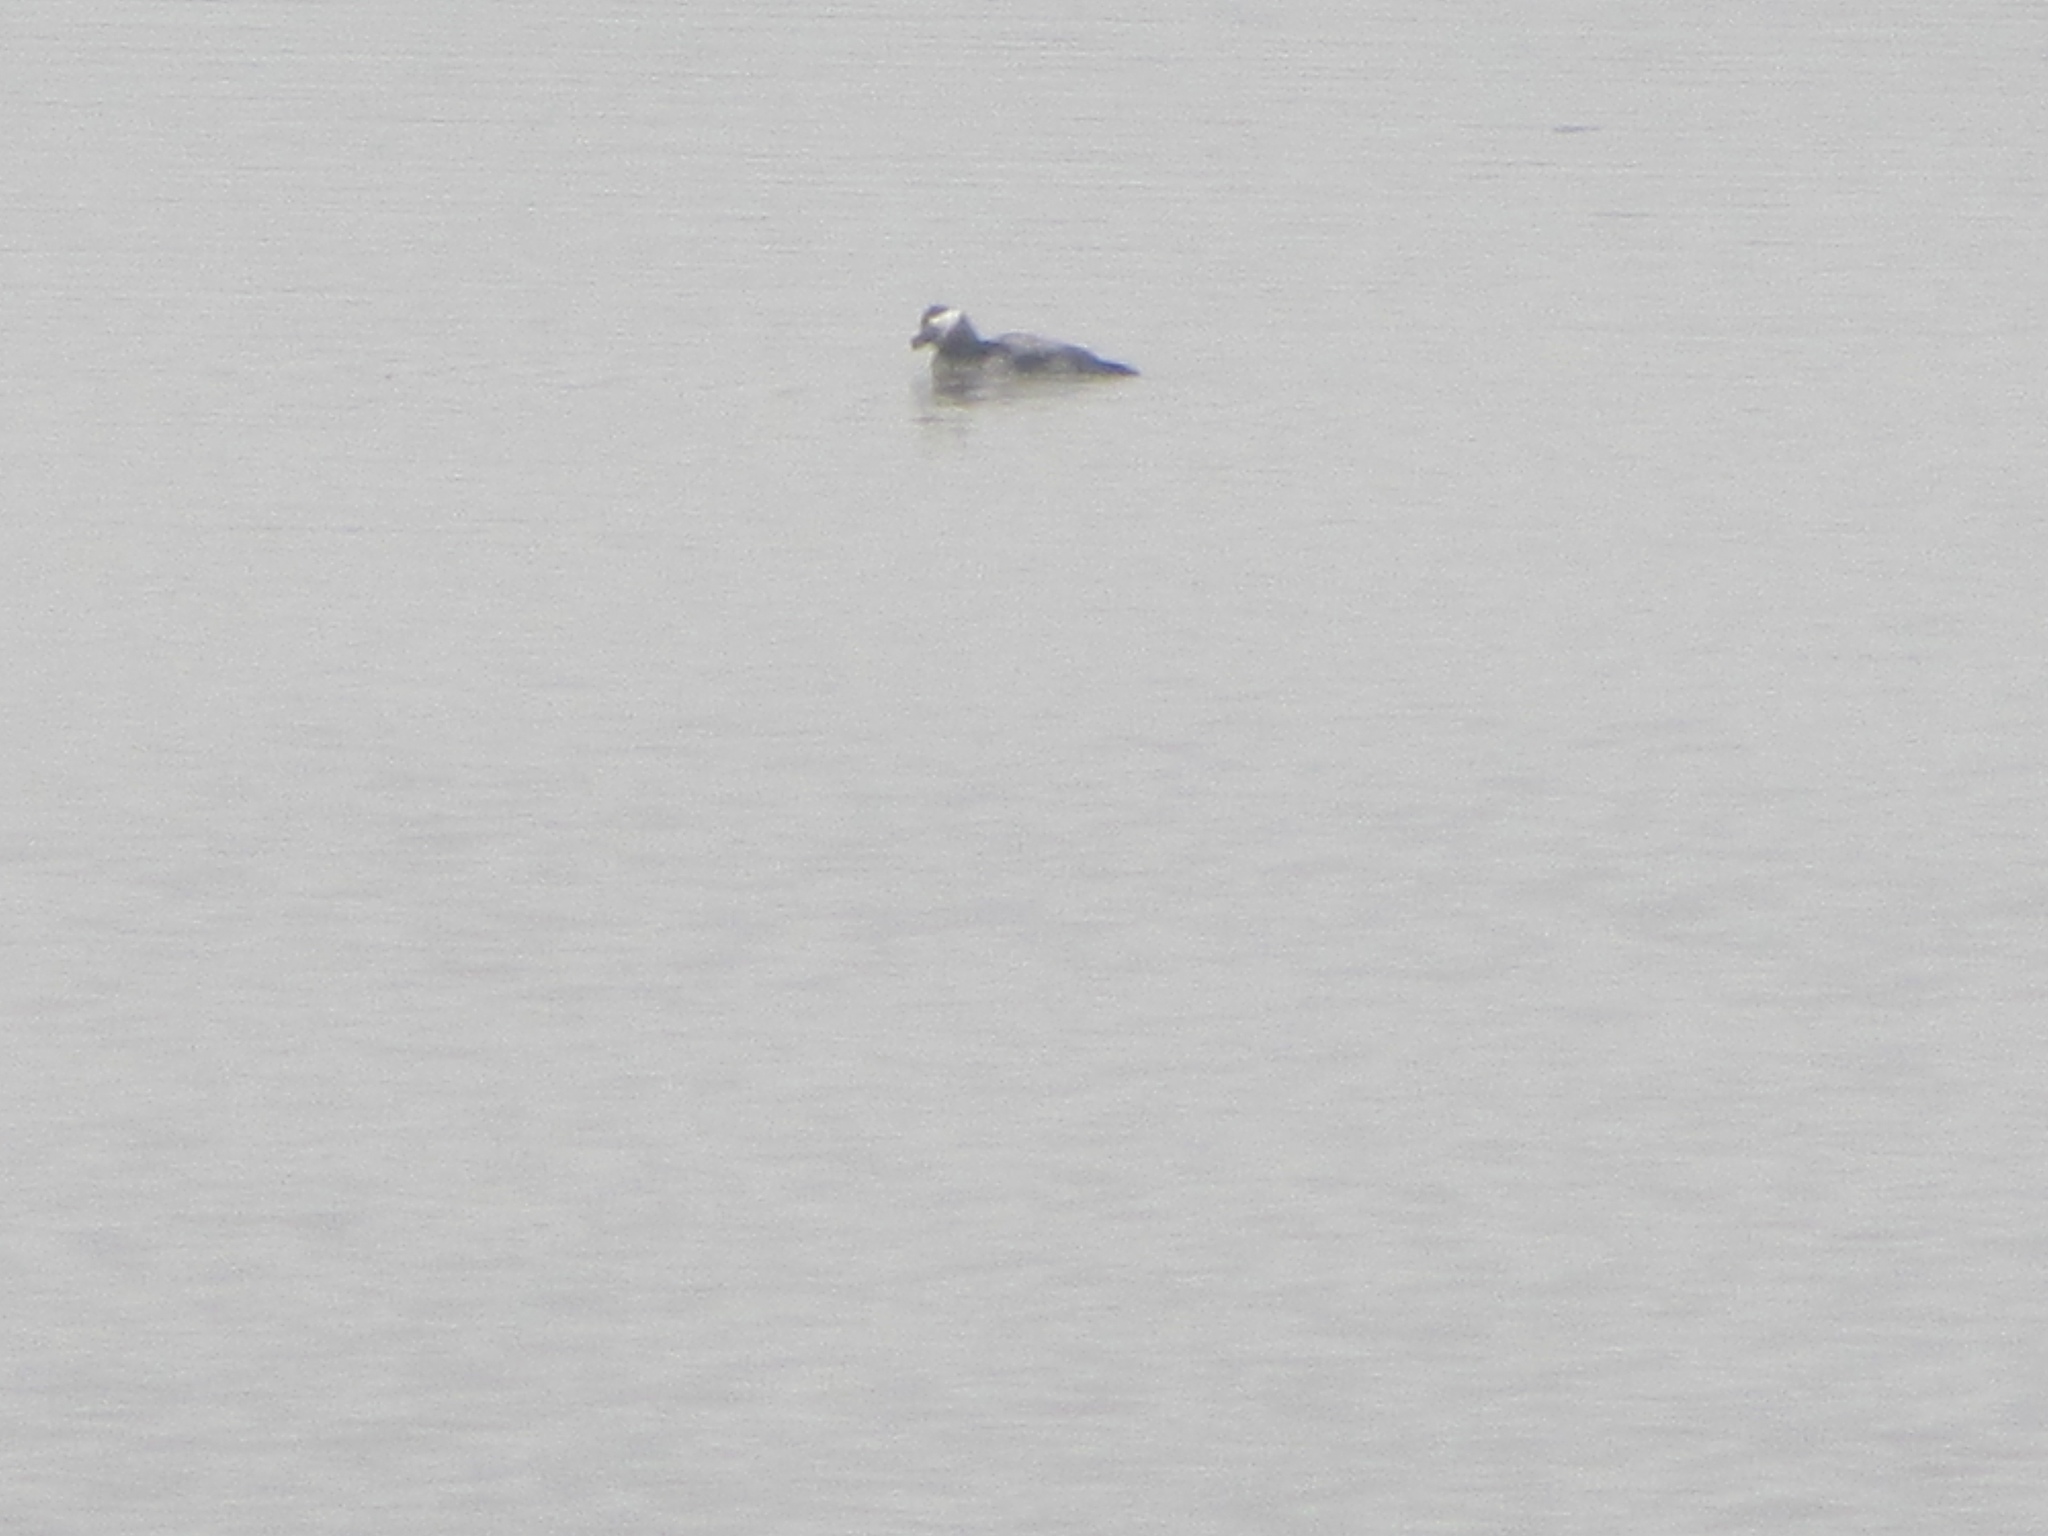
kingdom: Animalia
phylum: Chordata
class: Aves
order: Anseriformes
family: Anatidae
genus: Oxyura
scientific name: Oxyura jamaicensis
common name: Ruddy duck
